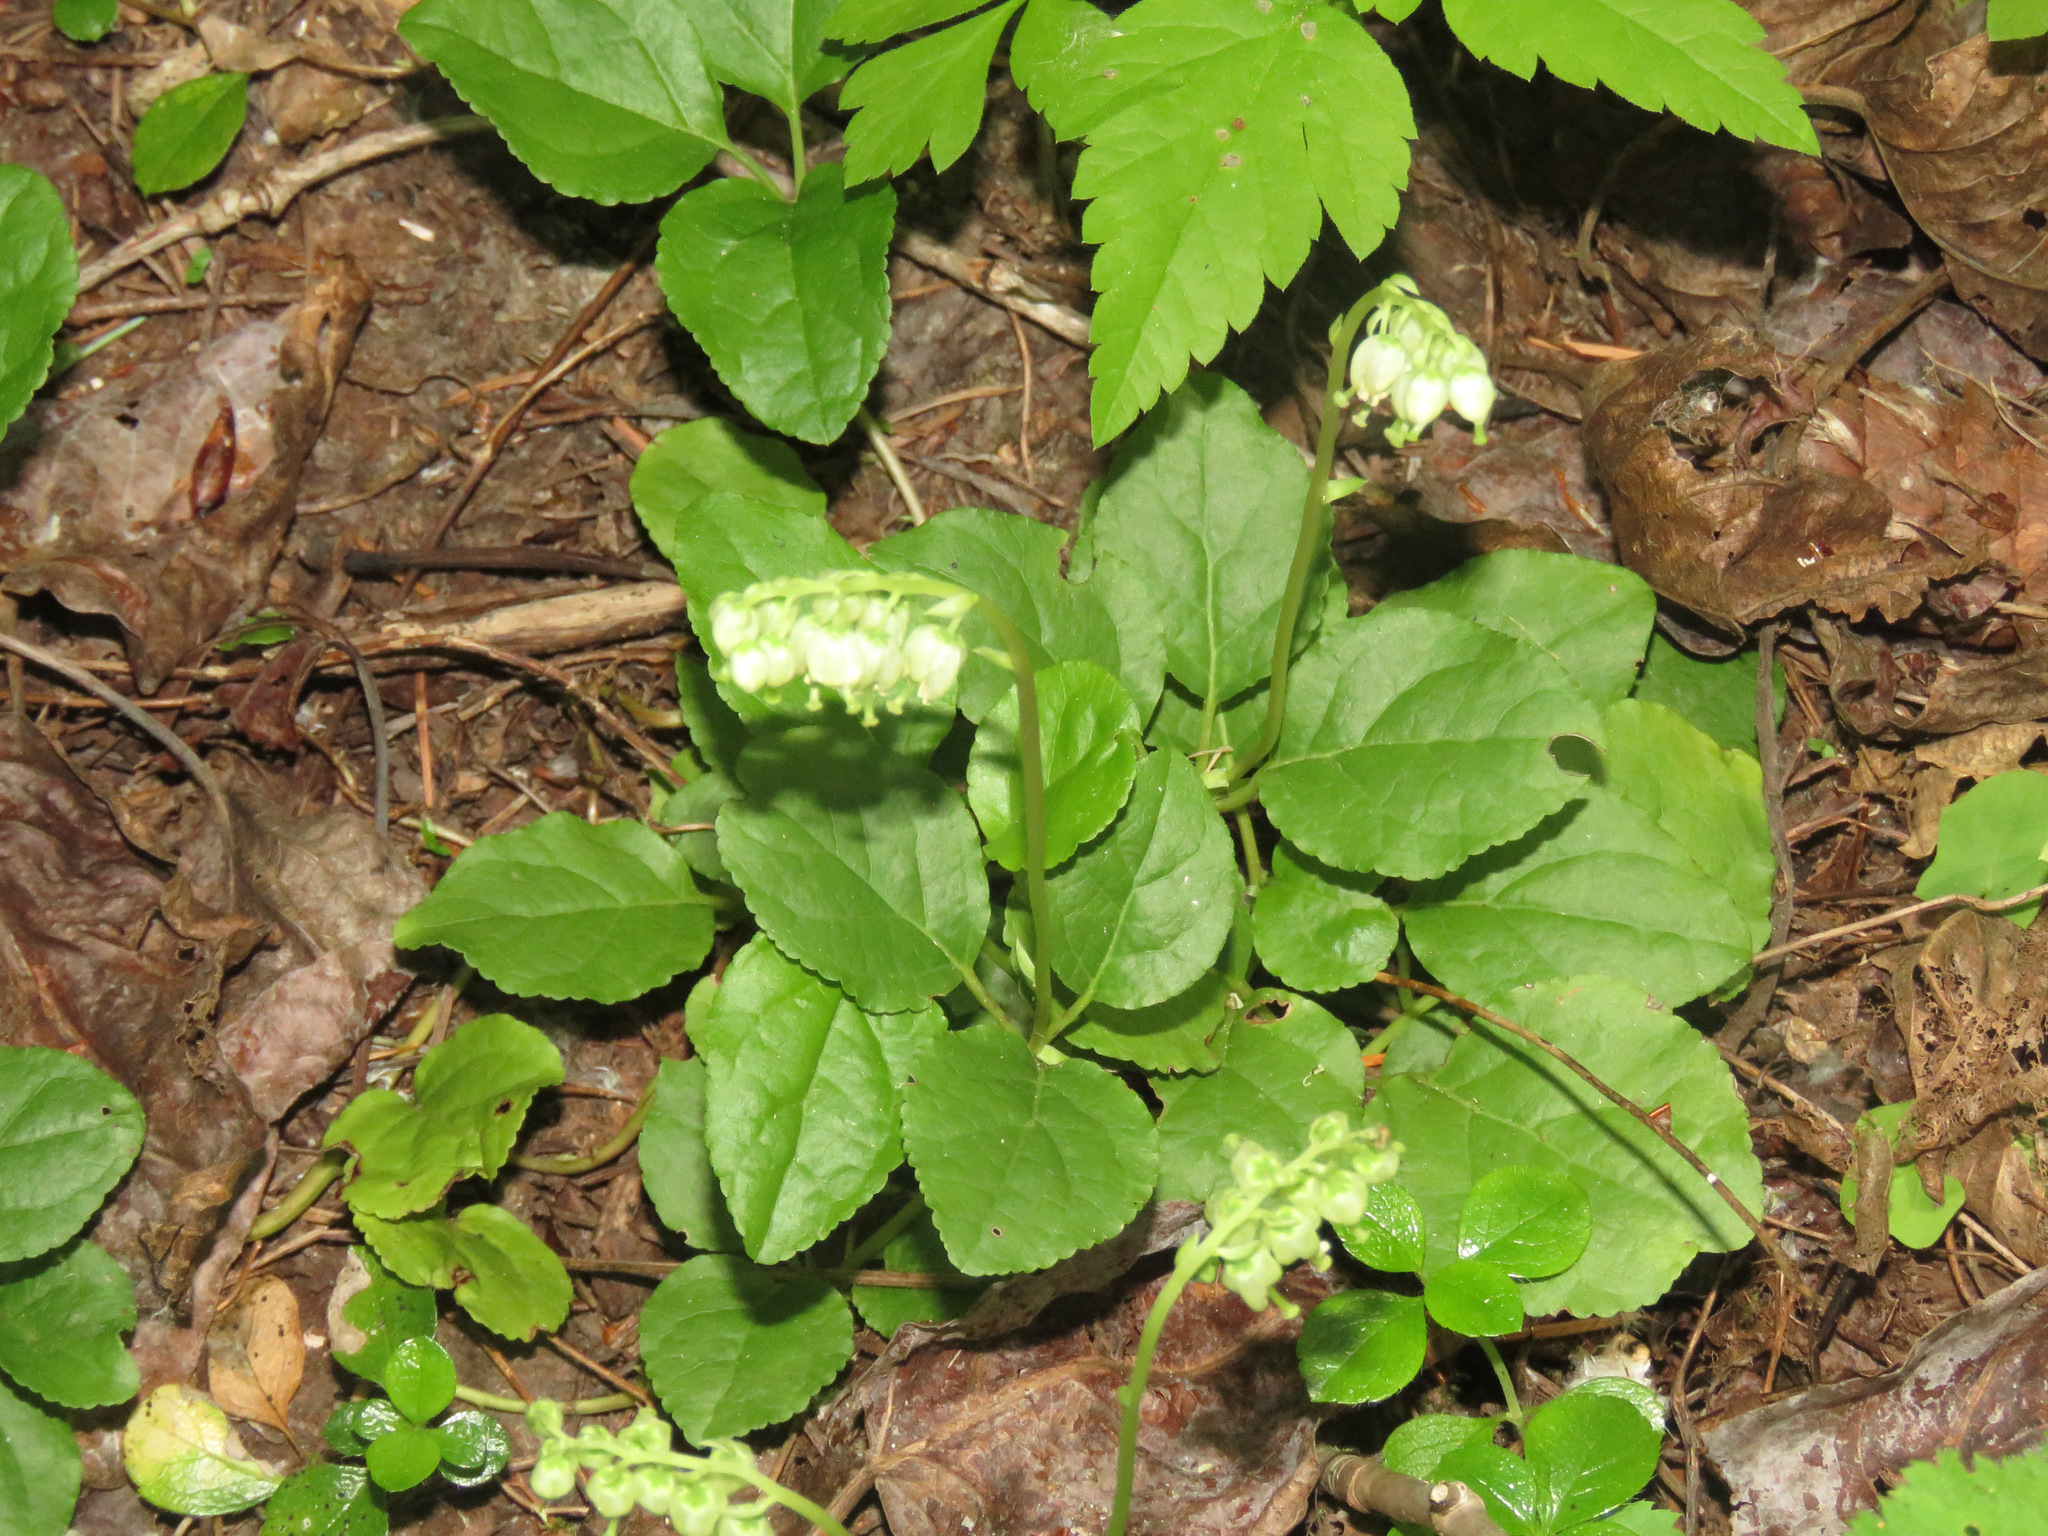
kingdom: Plantae
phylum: Tracheophyta
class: Magnoliopsida
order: Ericales
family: Ericaceae
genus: Orthilia
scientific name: Orthilia secunda
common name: One-sided orthilia
